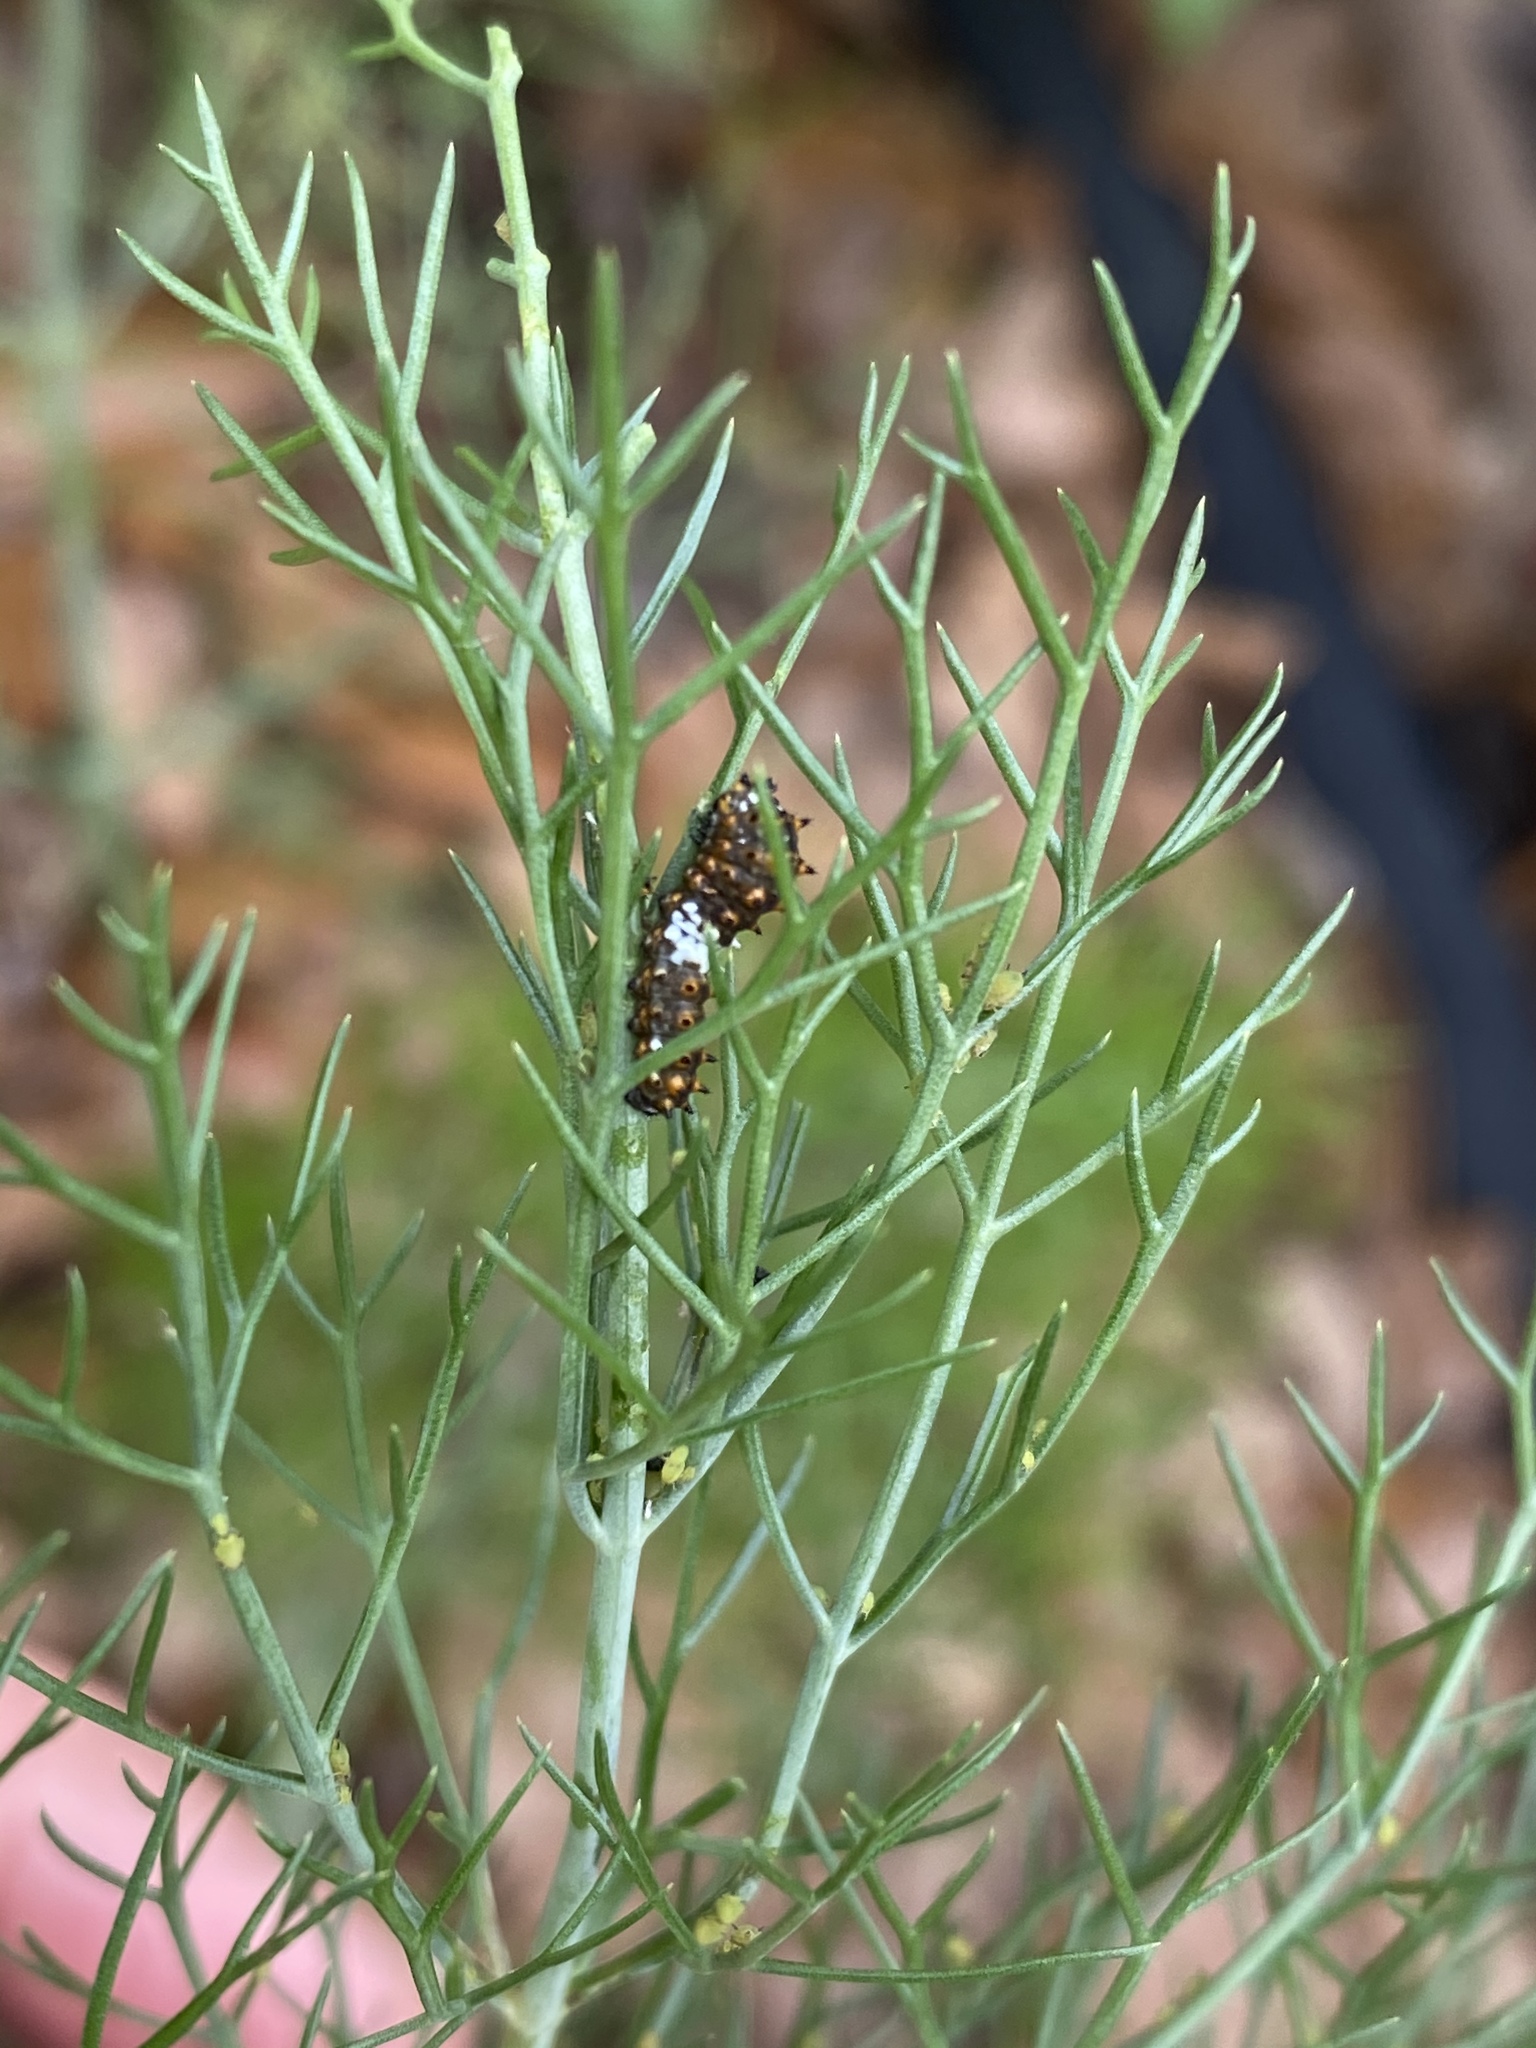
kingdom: Animalia
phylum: Arthropoda
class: Insecta
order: Lepidoptera
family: Papilionidae
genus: Papilio
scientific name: Papilio polyxenes
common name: Black swallowtail
